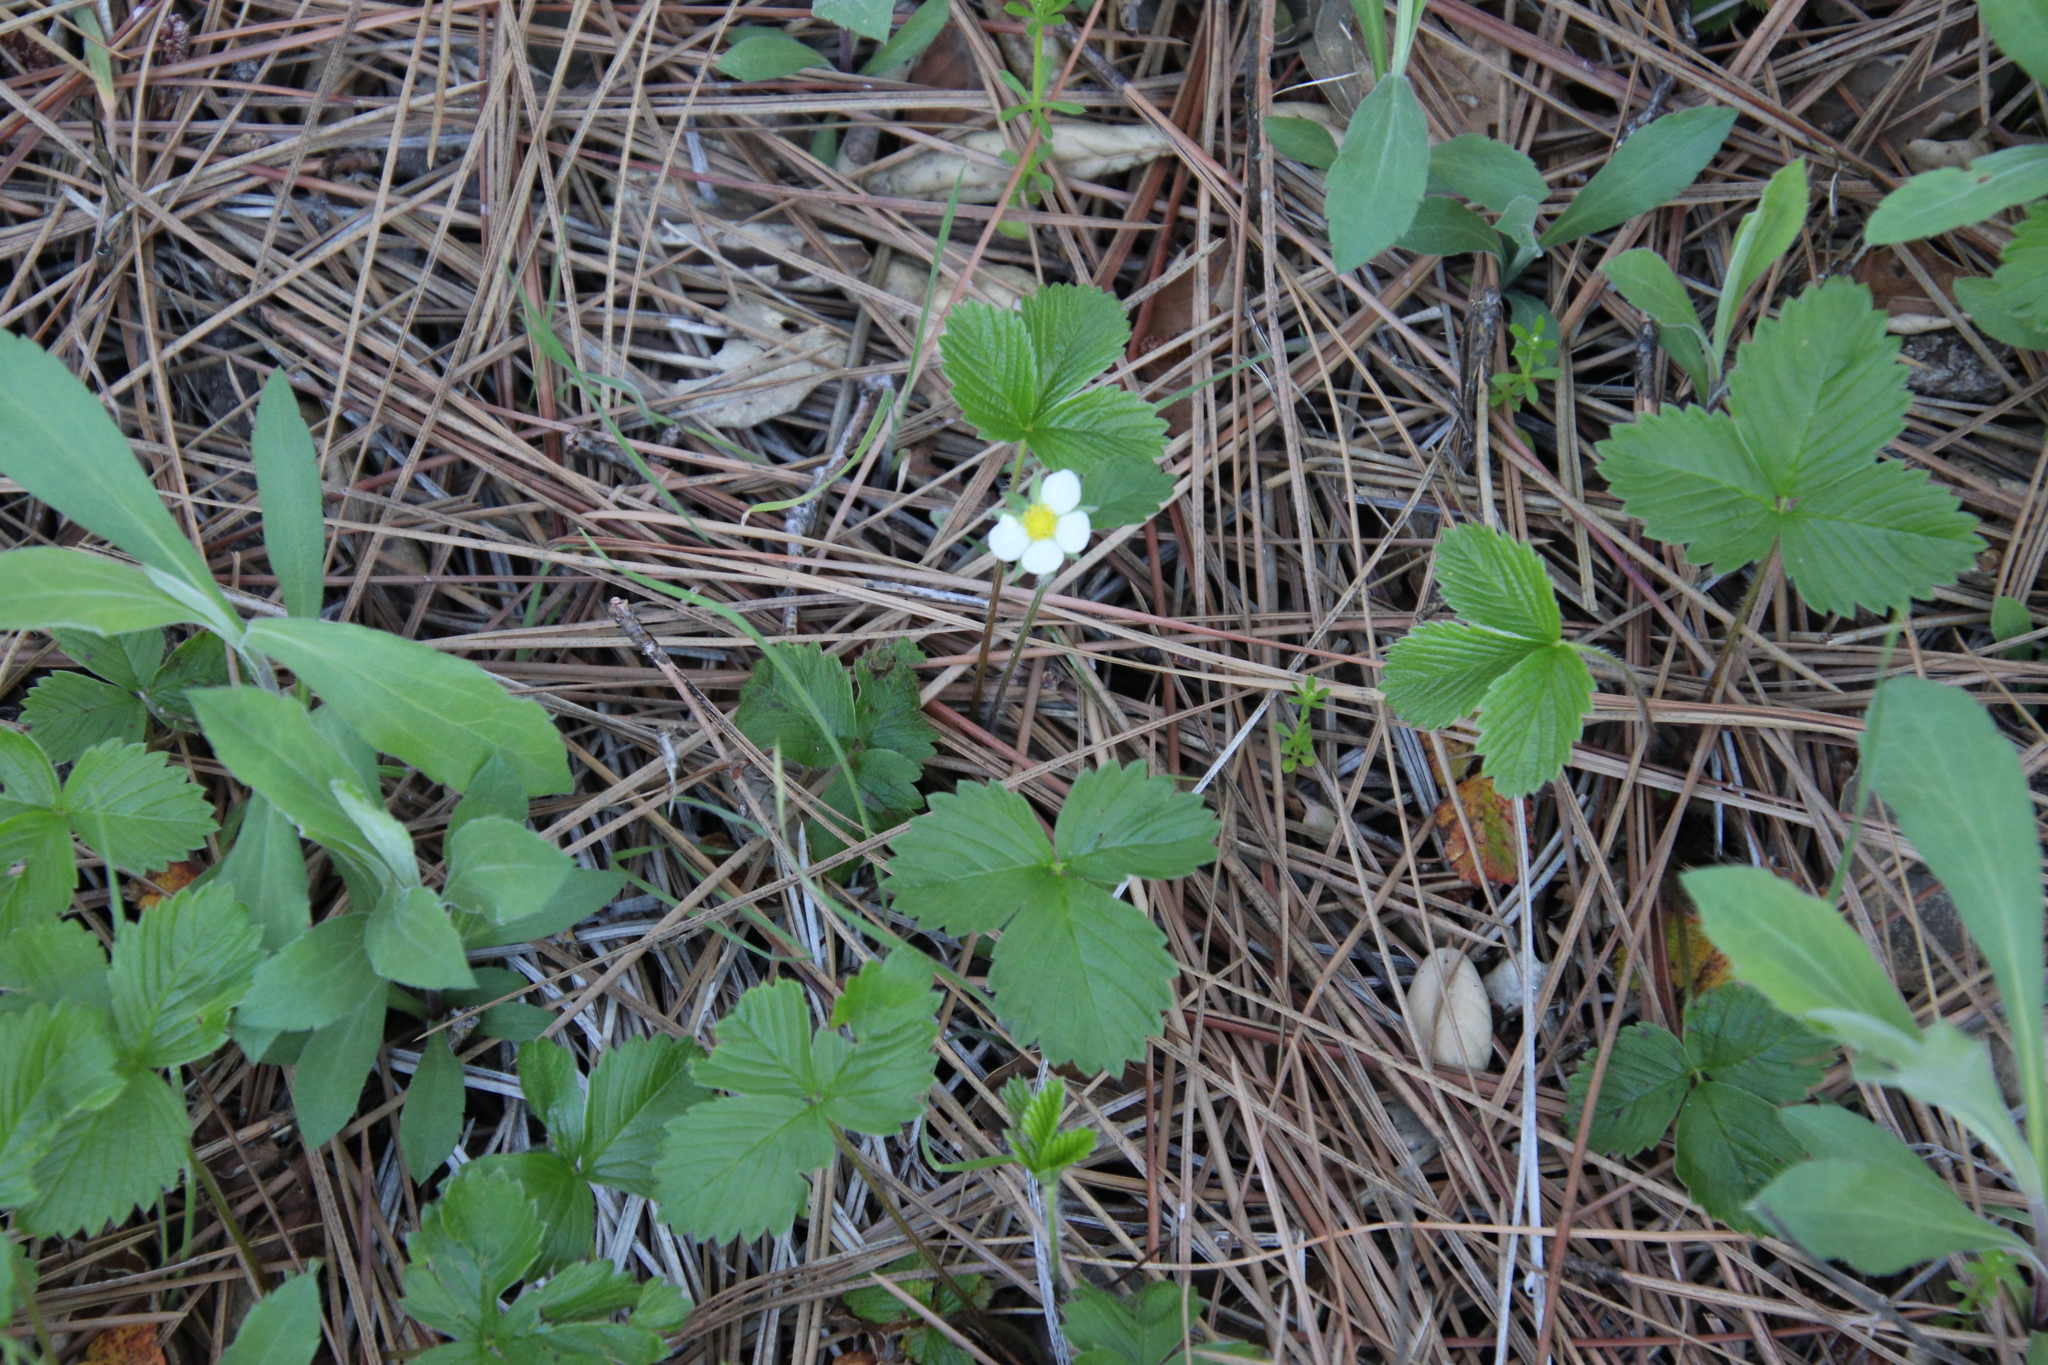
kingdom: Plantae
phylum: Tracheophyta
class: Magnoliopsida
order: Rosales
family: Rosaceae
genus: Fragaria
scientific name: Fragaria vesca
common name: Wild strawberry
